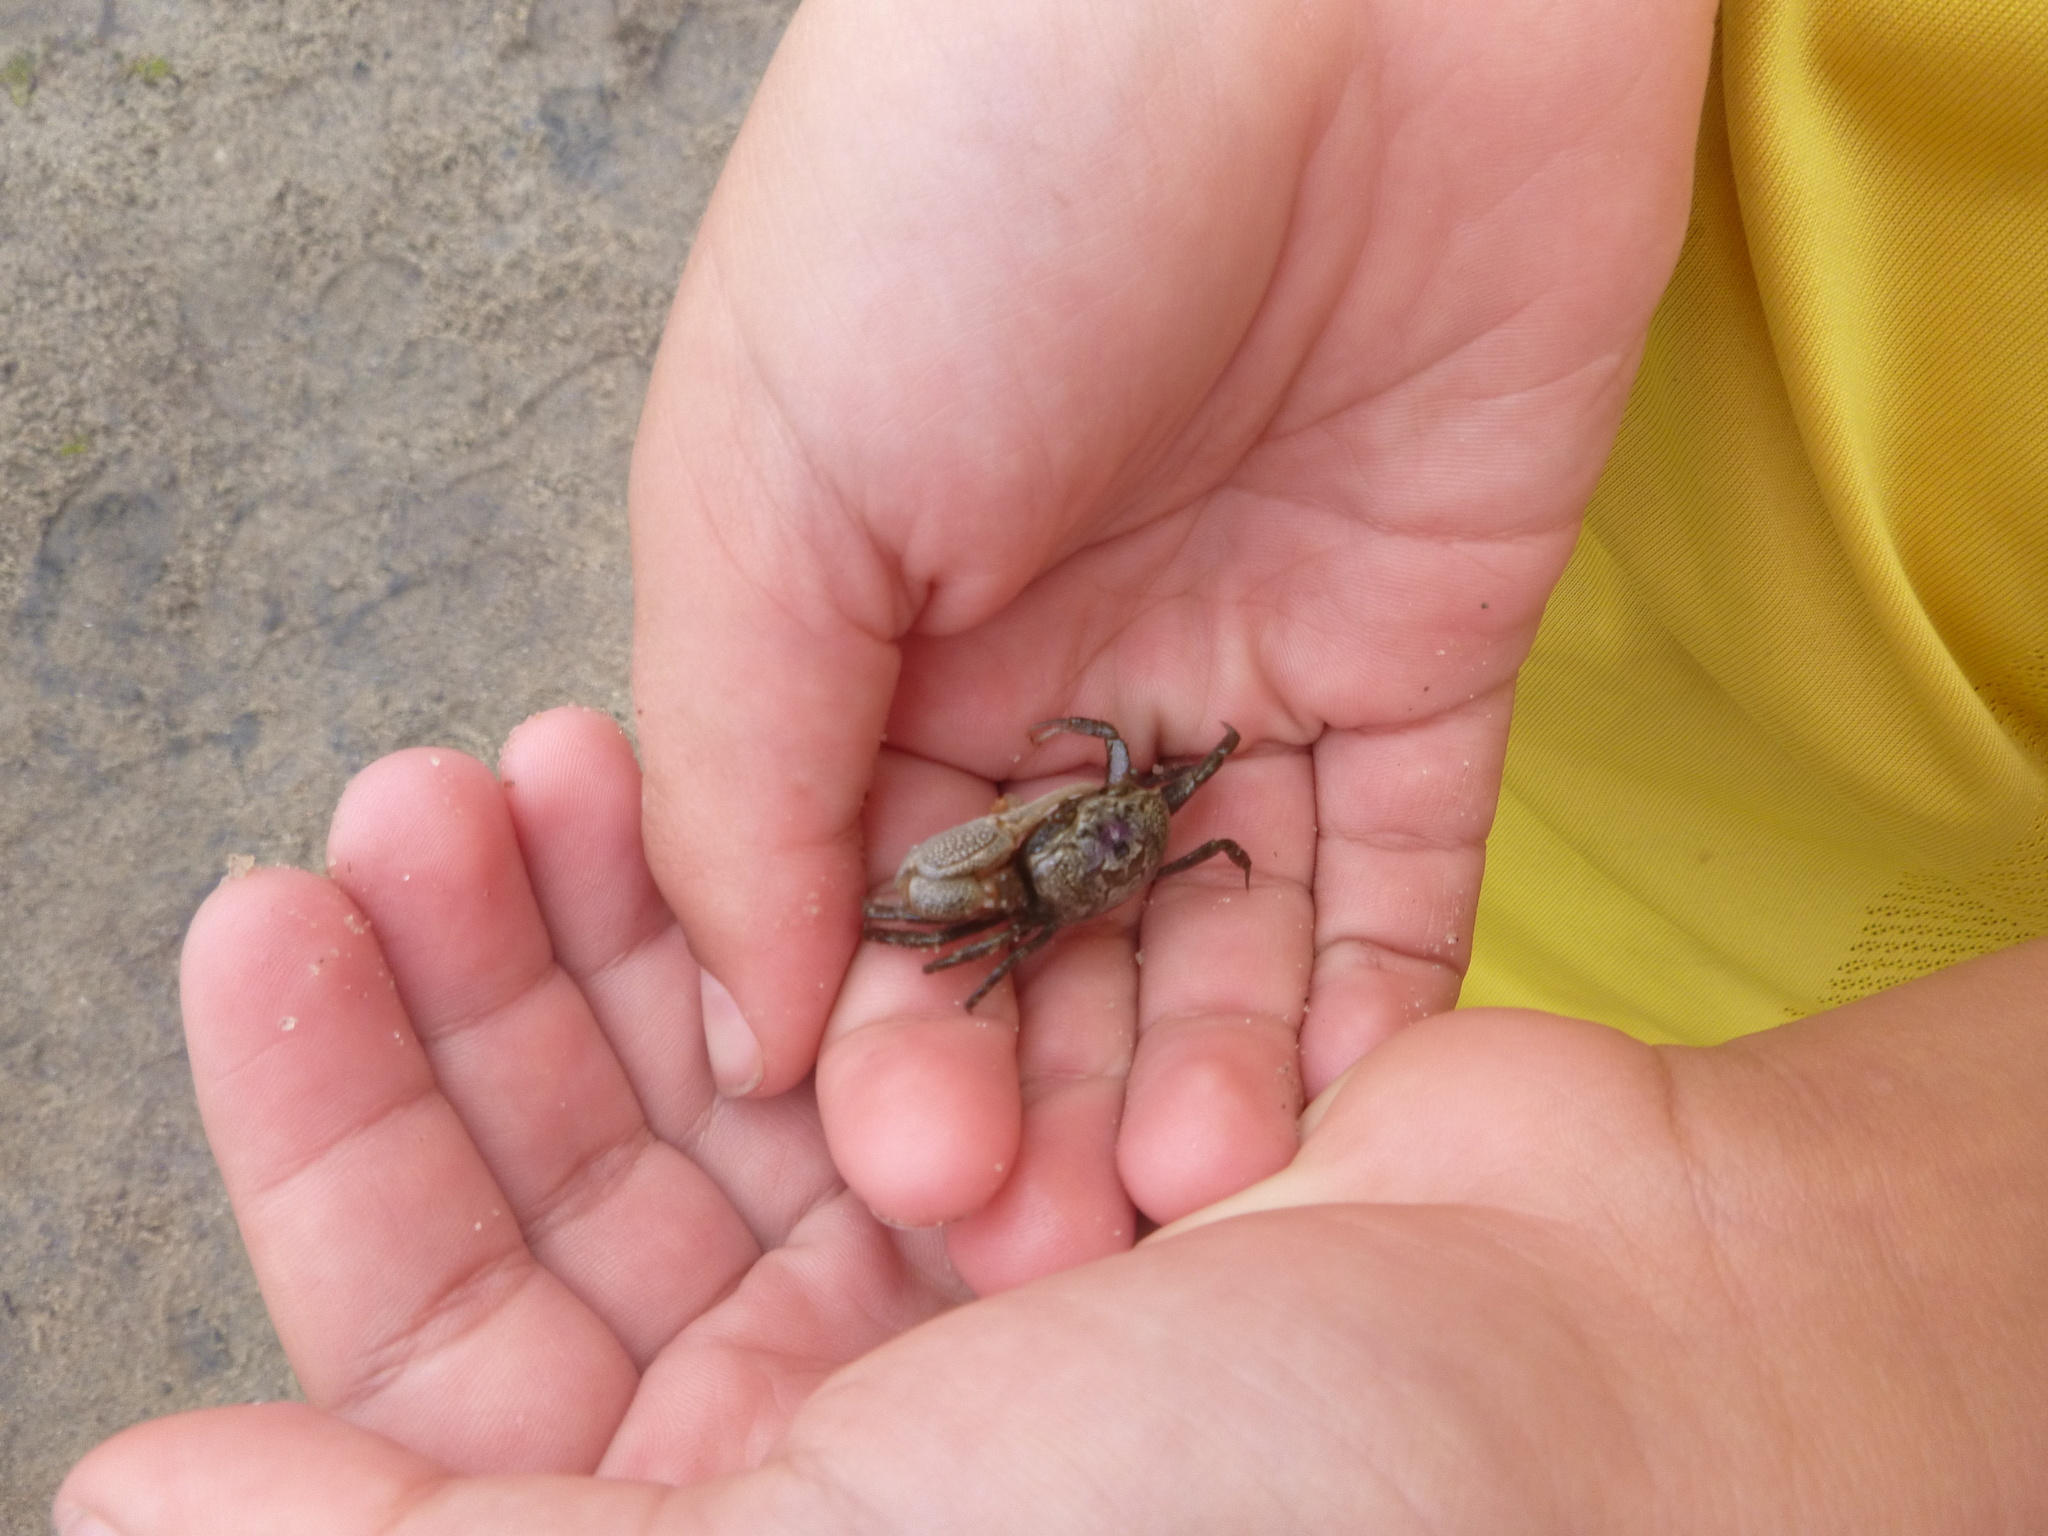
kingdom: Animalia
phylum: Arthropoda
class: Malacostraca
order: Decapoda
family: Ocypodidae
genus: Leptuca
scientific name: Leptuca pugilator
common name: Atlantic sand fiddler crab
